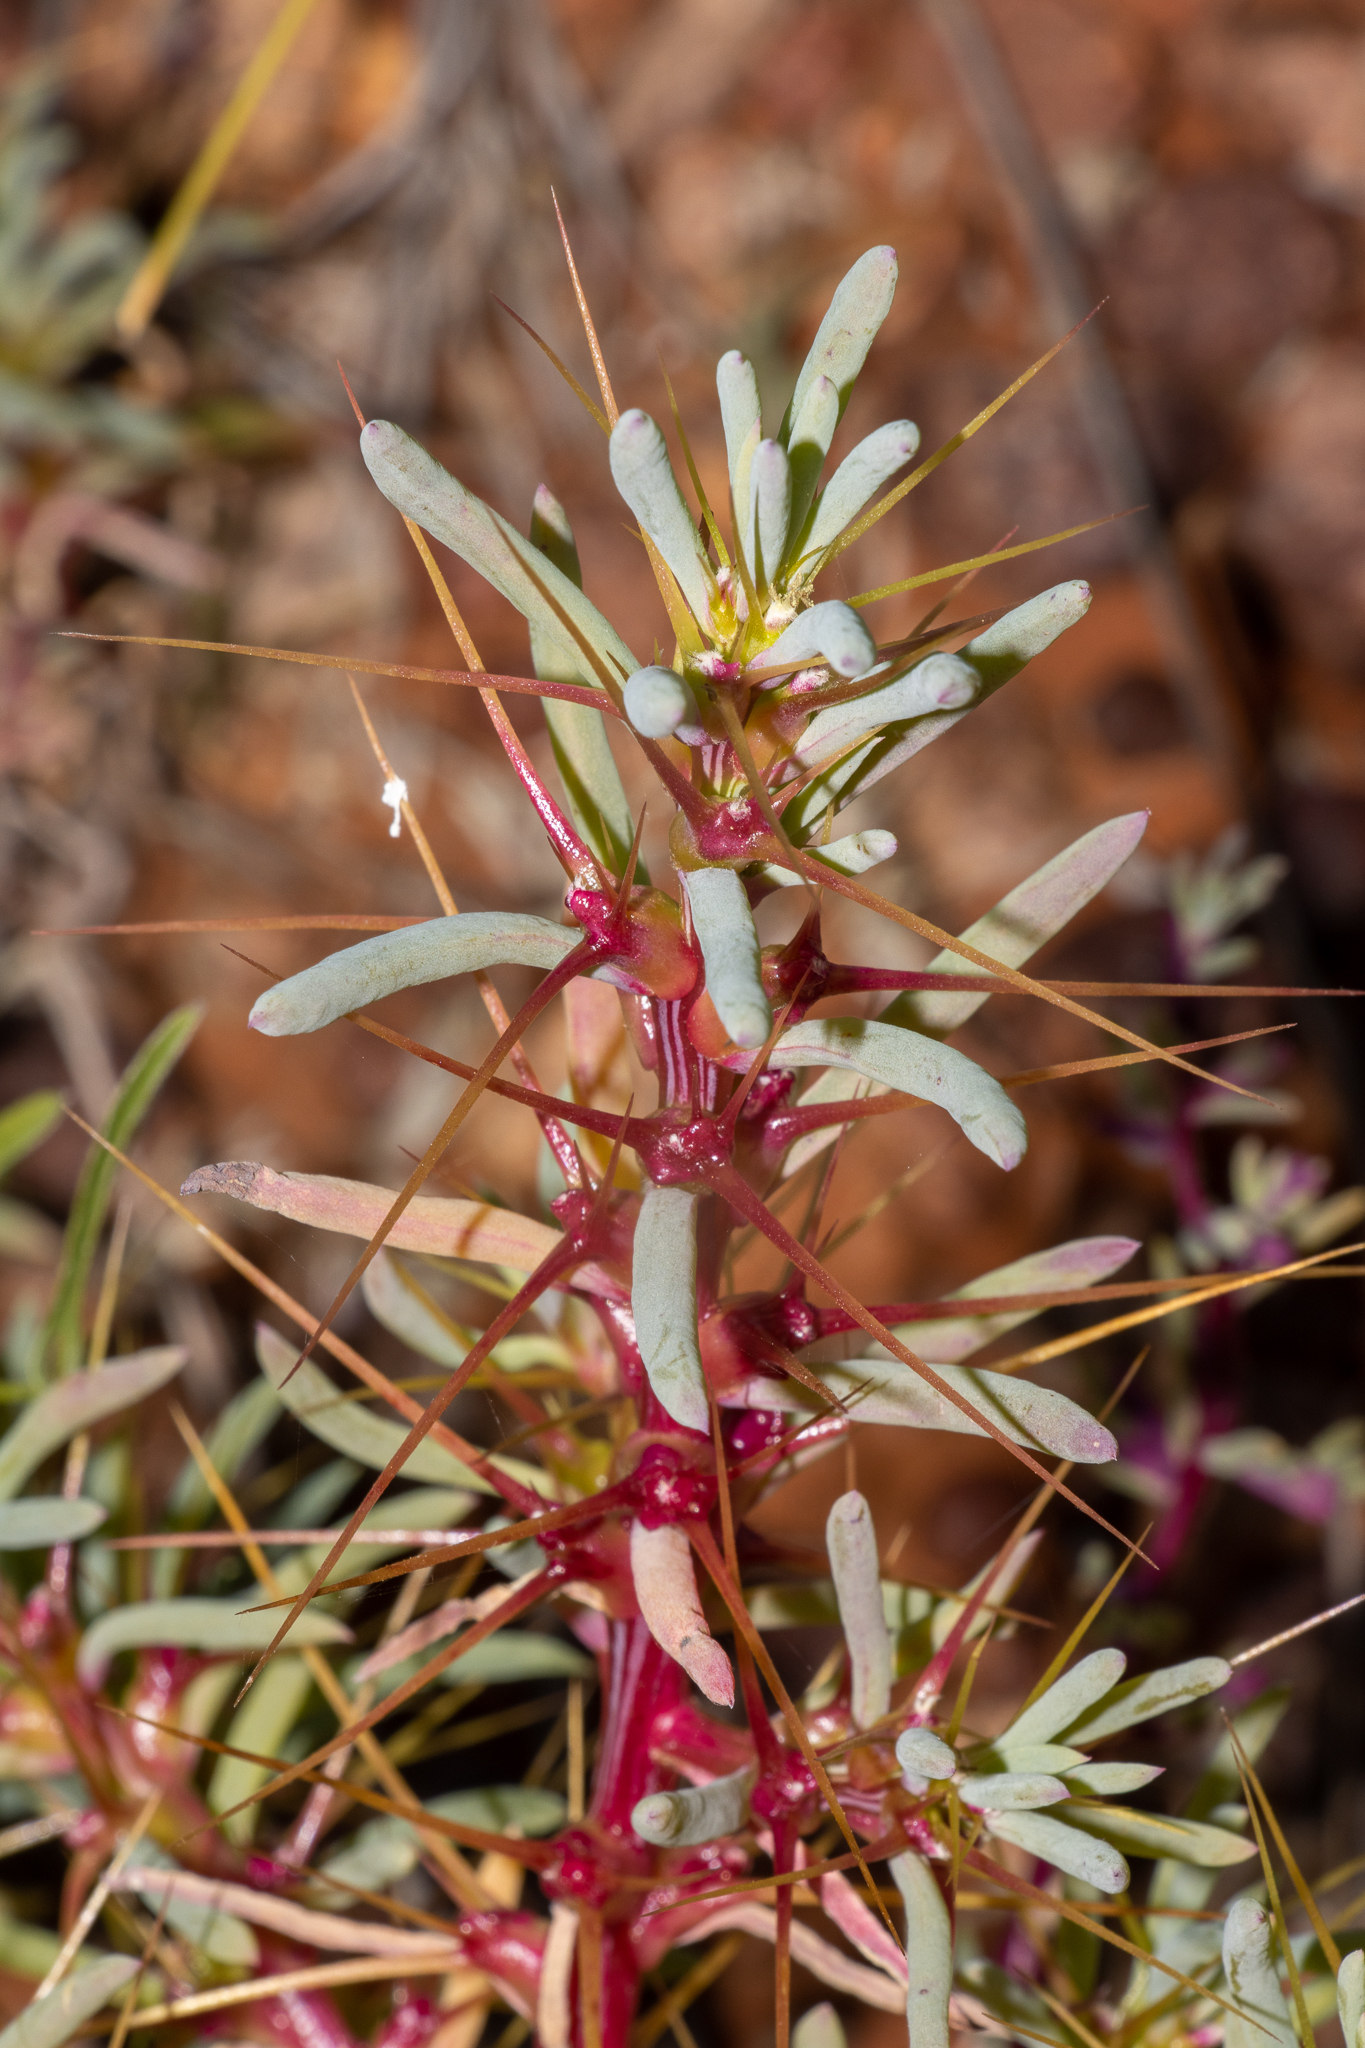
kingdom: Plantae
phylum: Tracheophyta
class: Magnoliopsida
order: Caryophyllales
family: Amaranthaceae
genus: Sclerolaena
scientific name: Sclerolaena longicuspis
